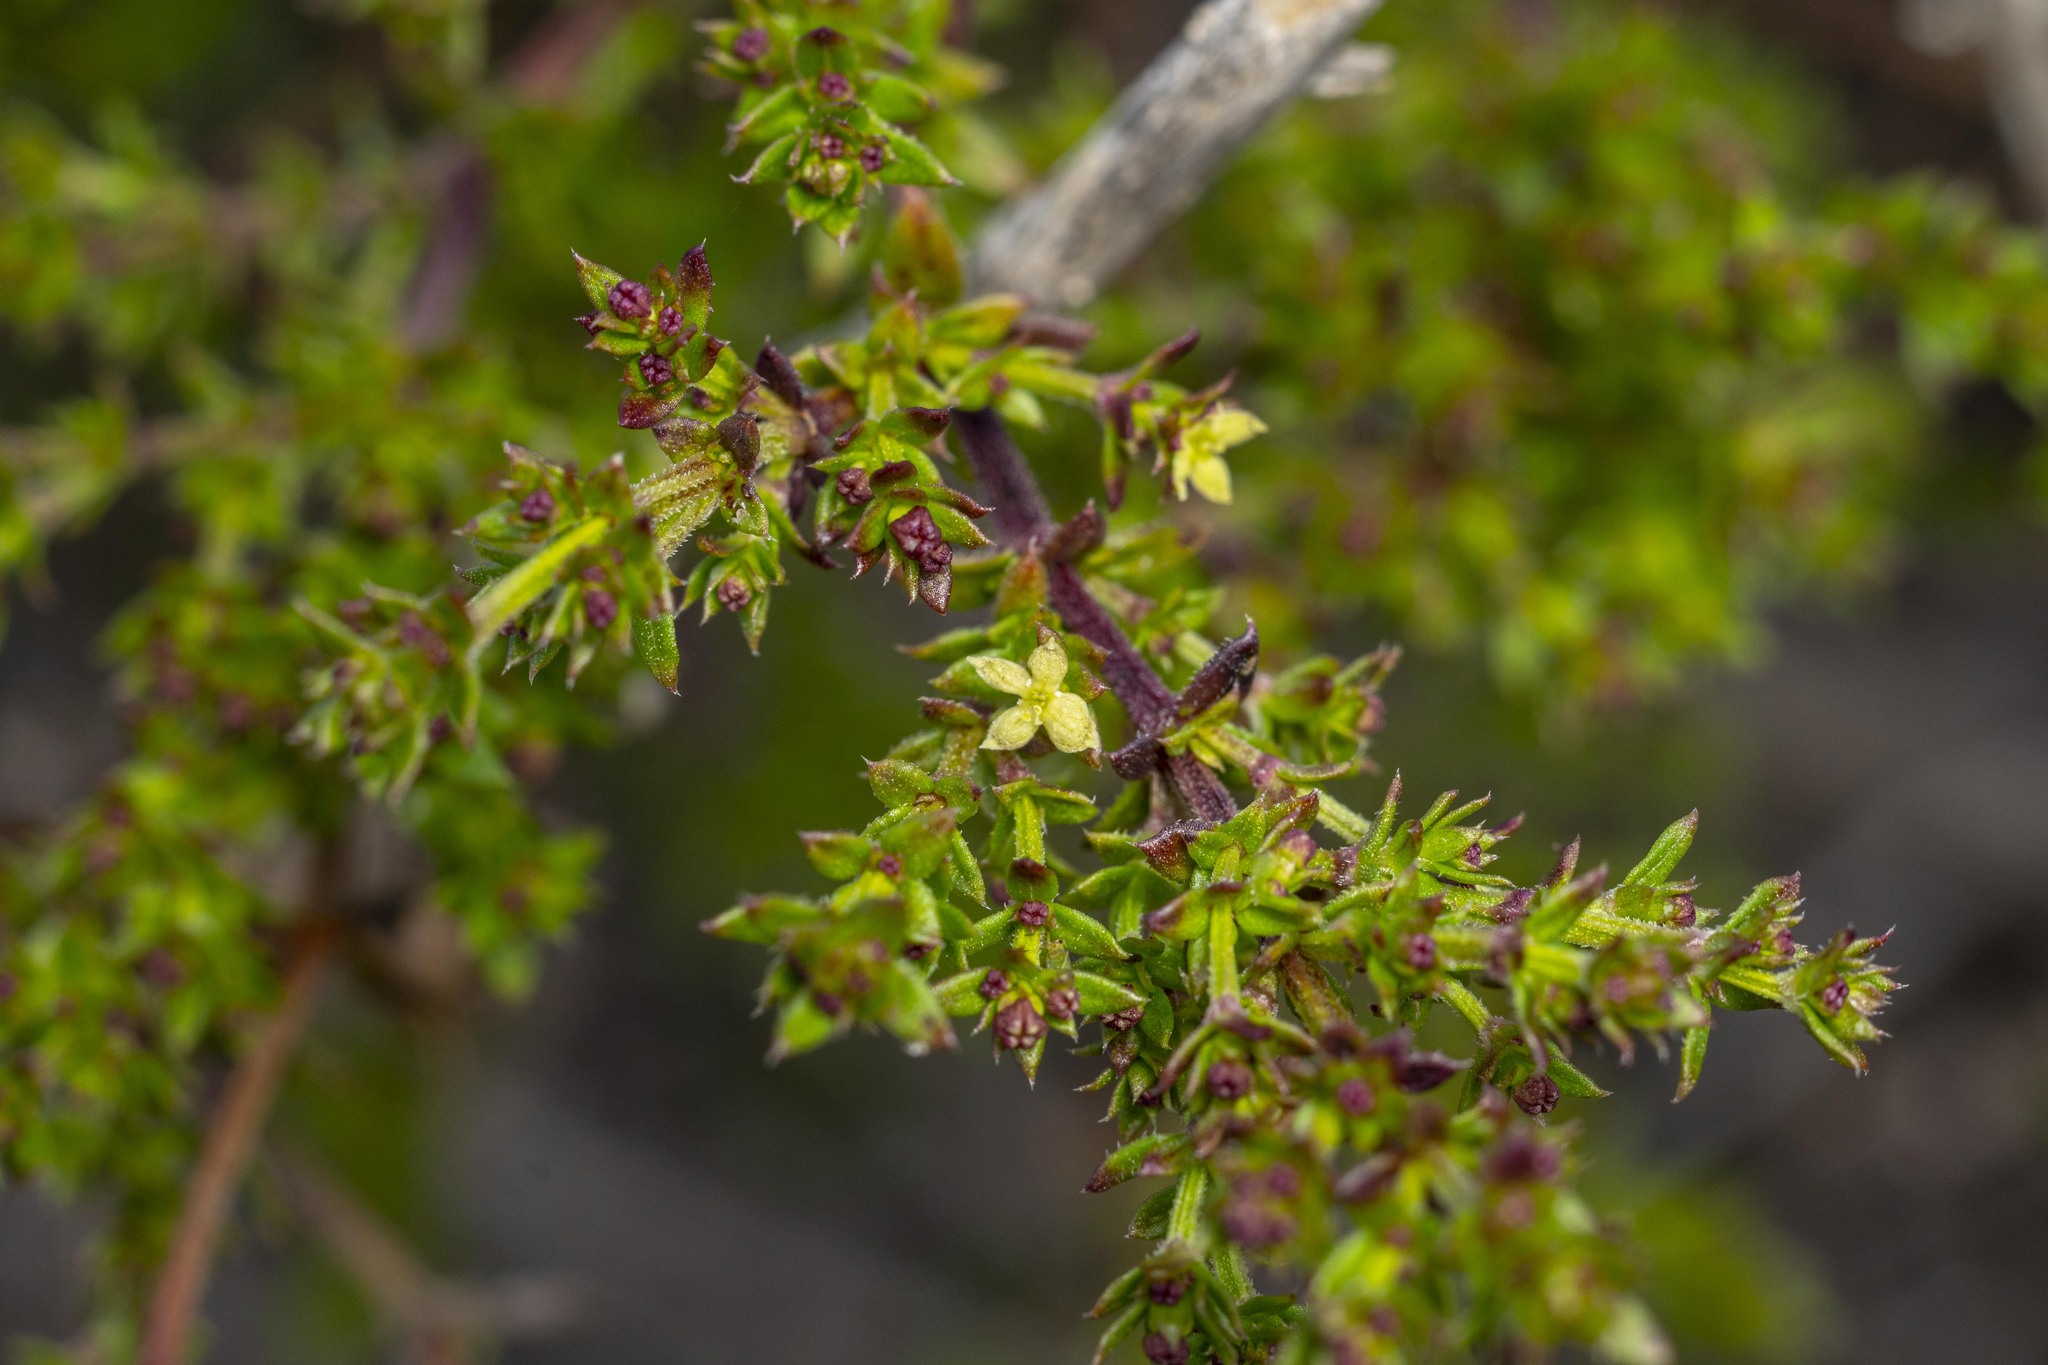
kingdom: Plantae
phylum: Tracheophyta
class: Magnoliopsida
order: Gentianales
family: Rubiaceae
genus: Galium
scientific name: Galium nuttallii
